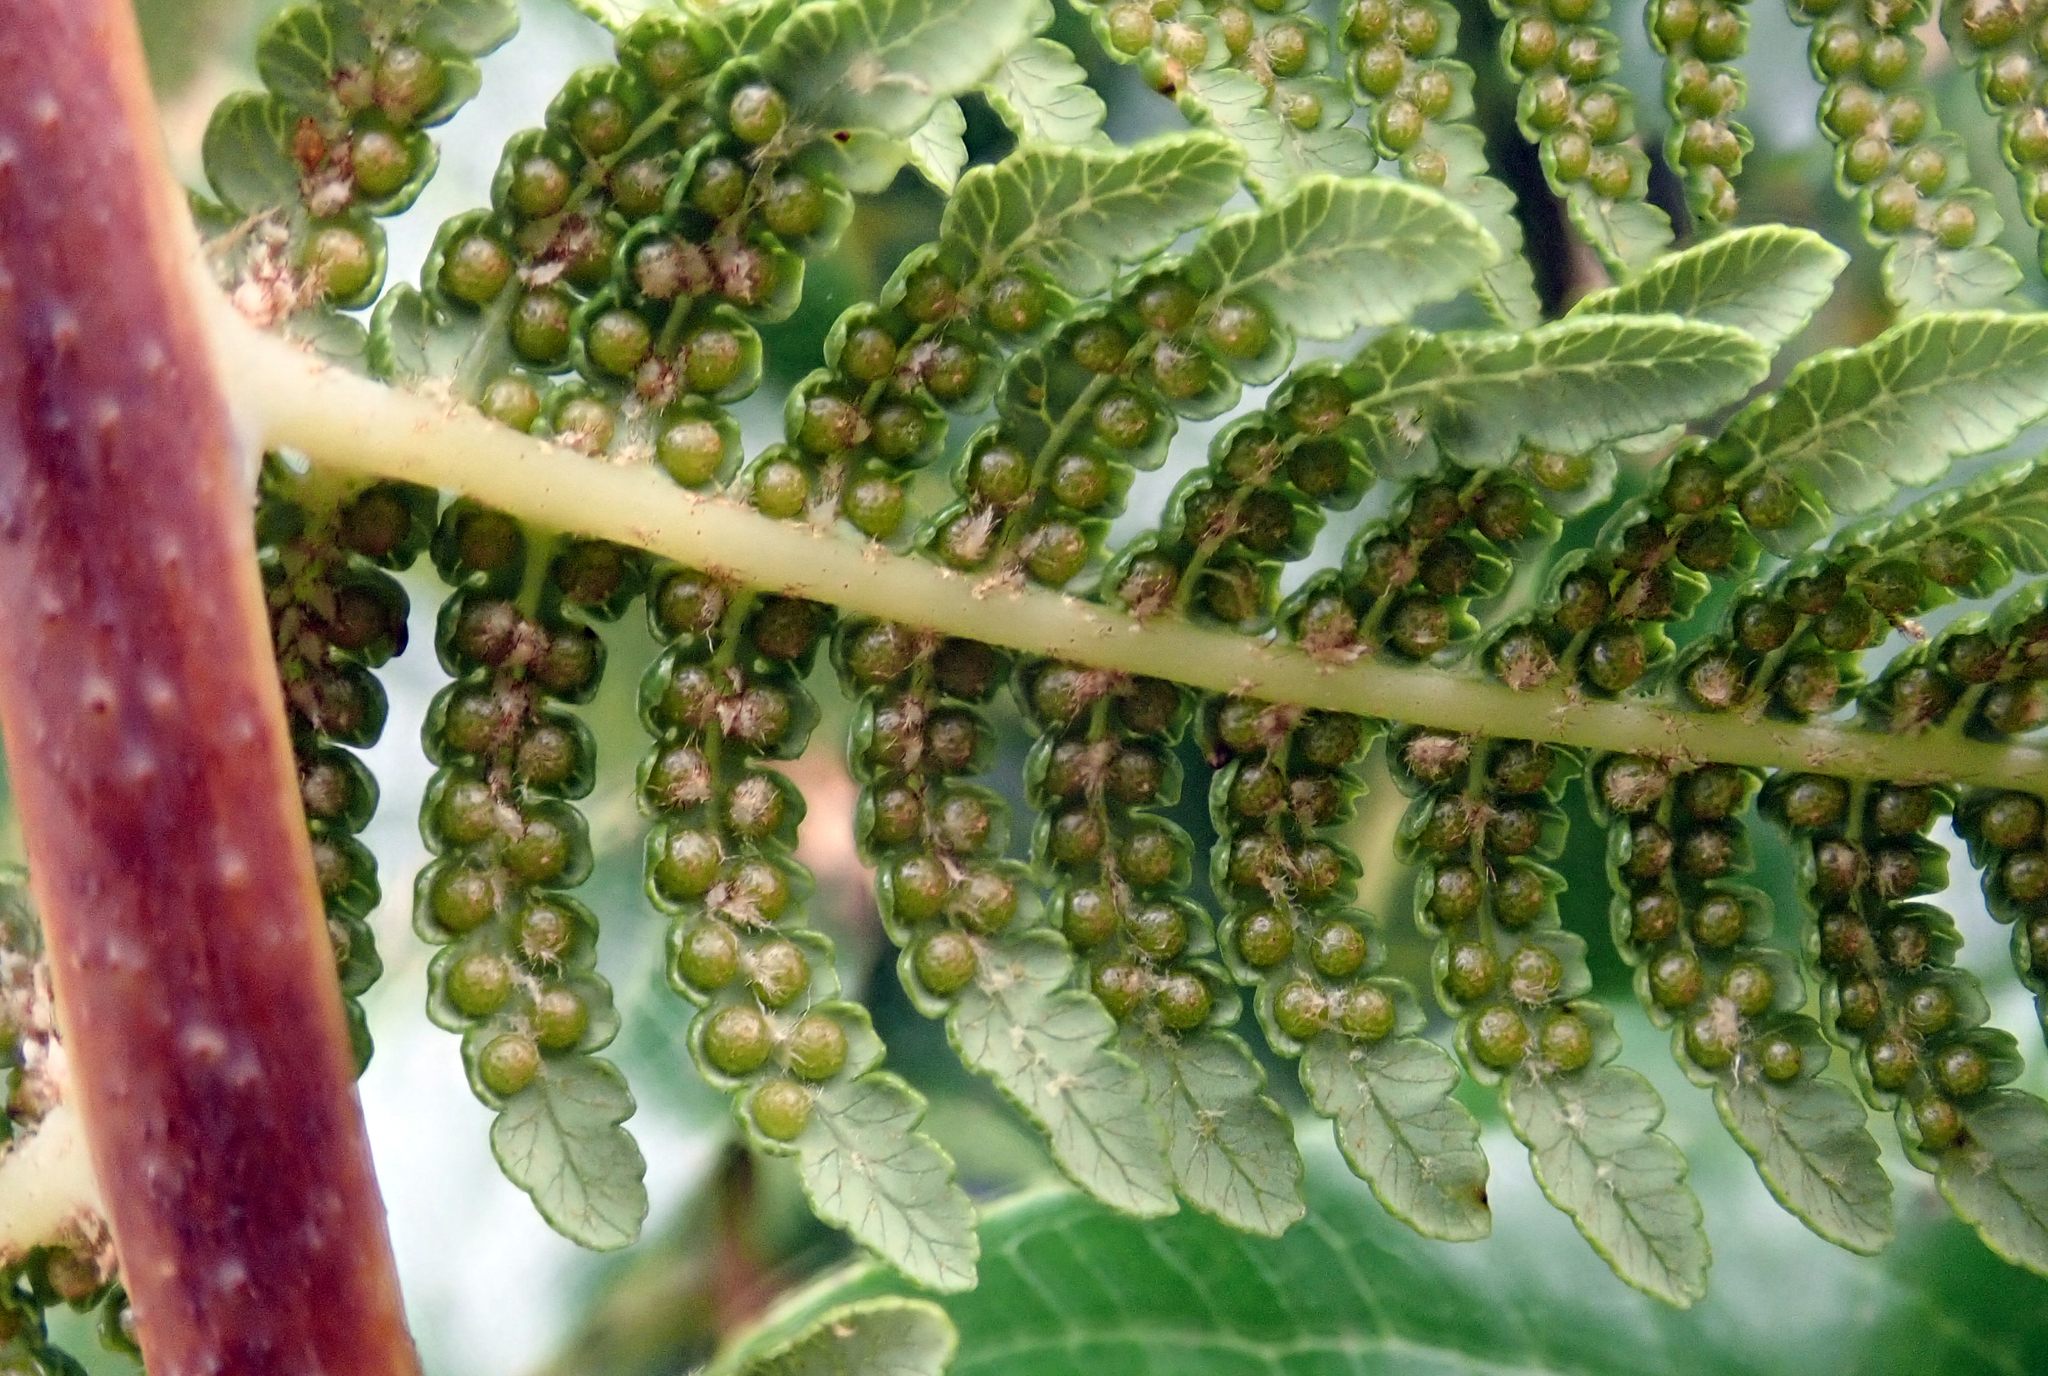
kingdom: Plantae
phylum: Tracheophyta
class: Polypodiopsida
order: Cyatheales
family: Cyatheaceae
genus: Sphaeropteris
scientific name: Sphaeropteris medullaris
